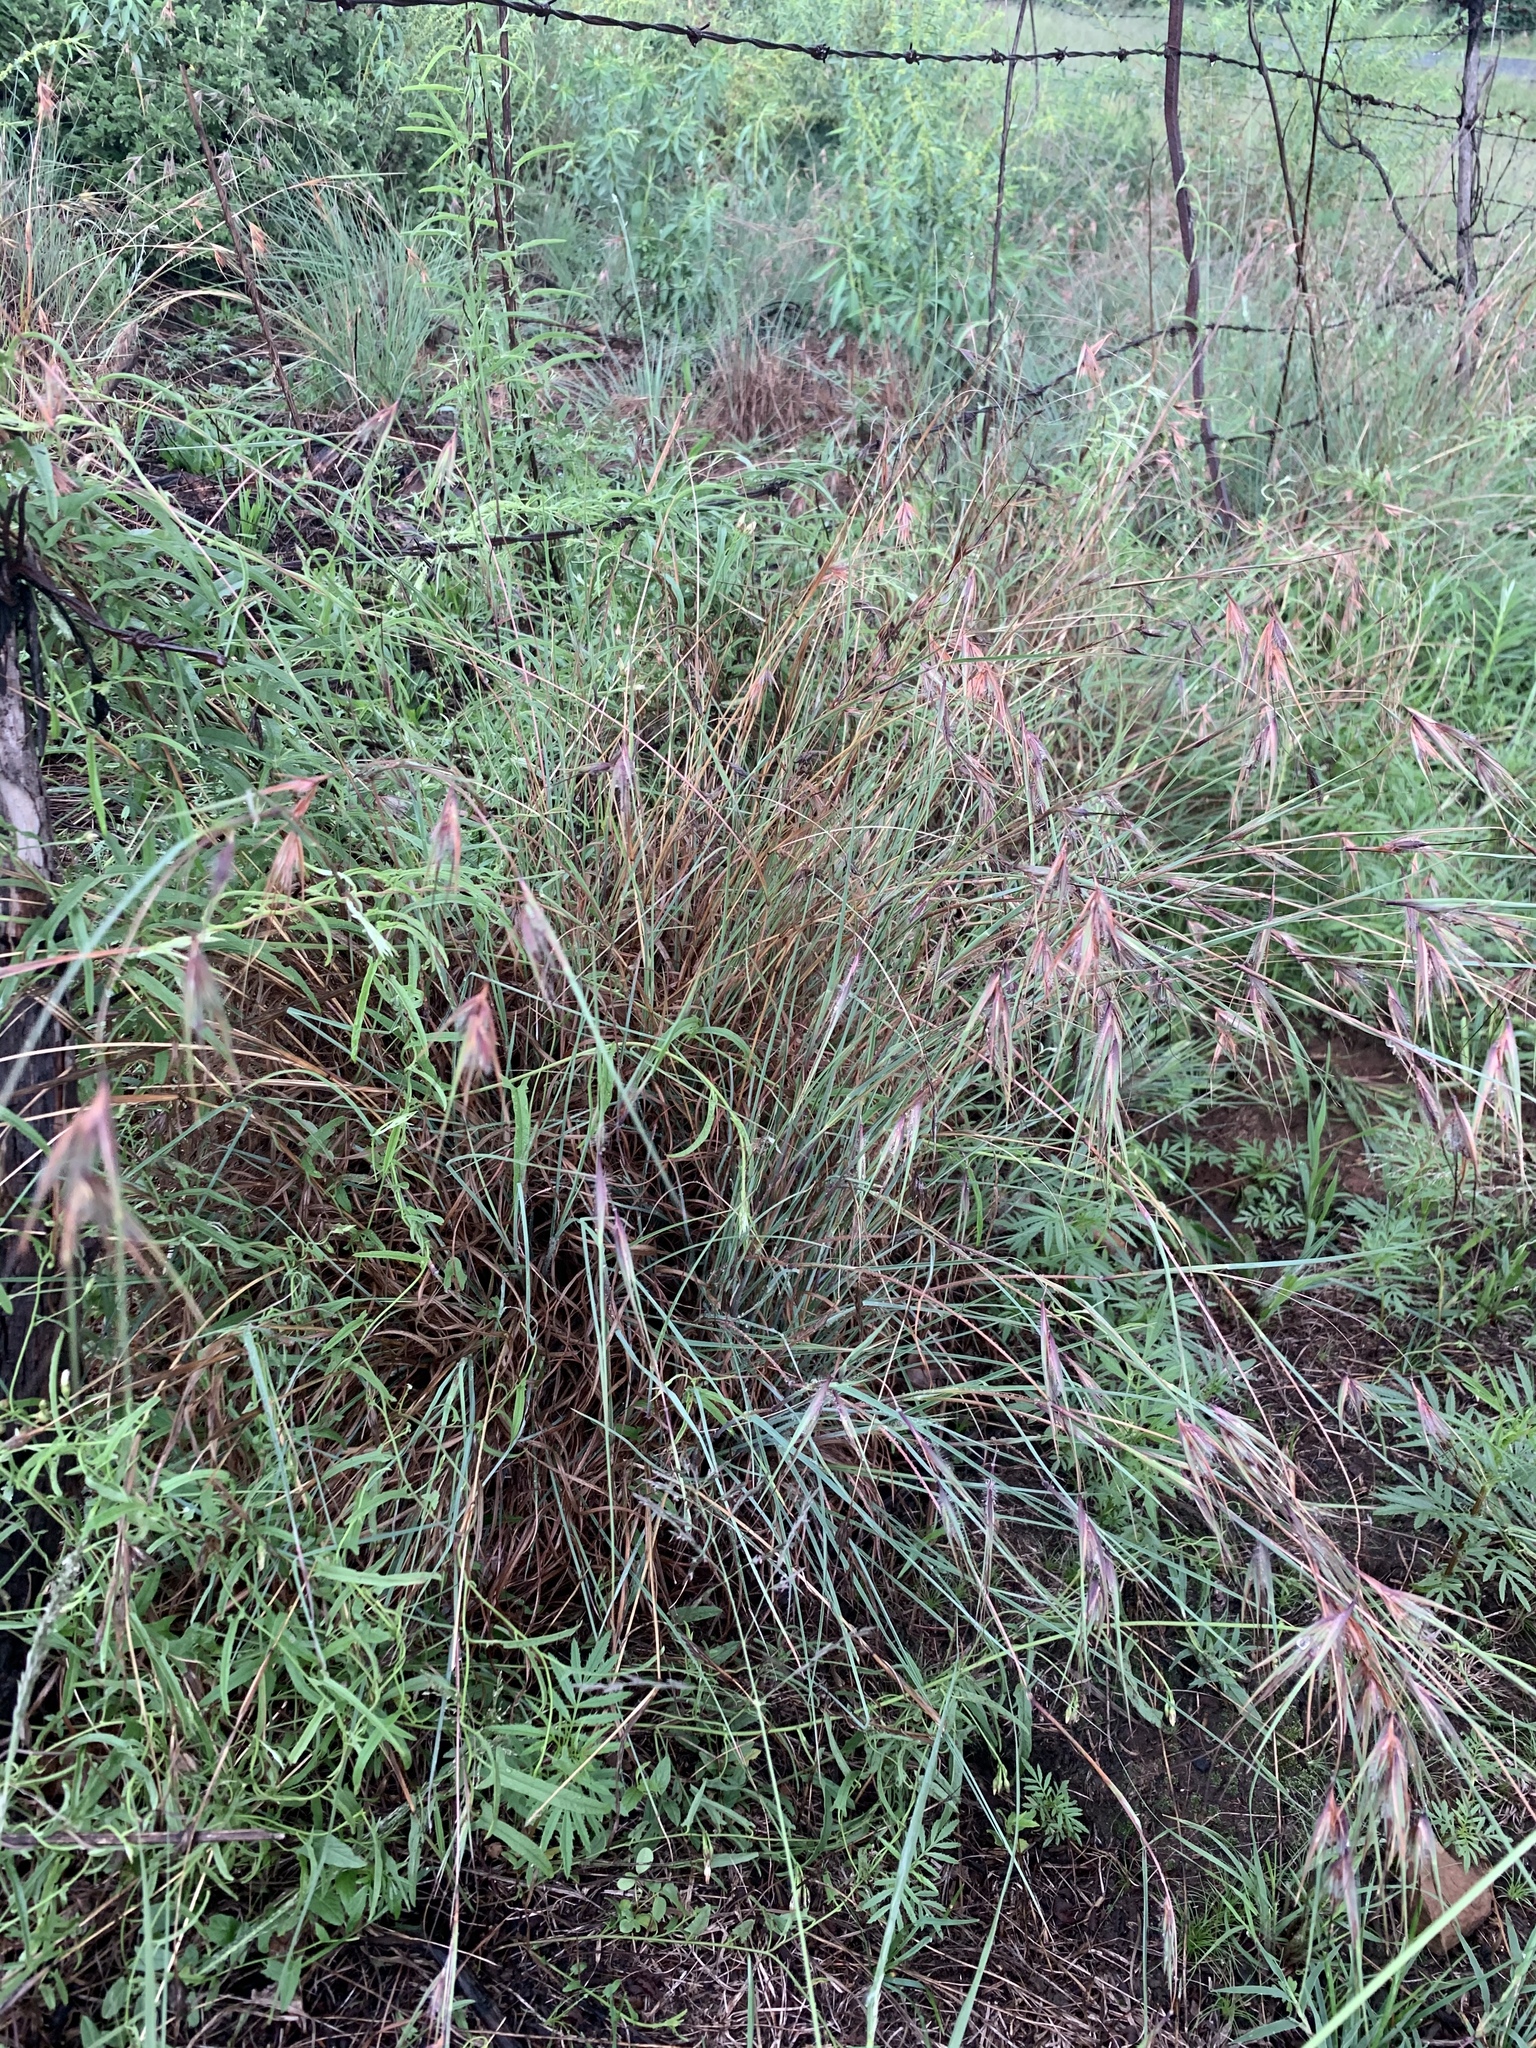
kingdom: Plantae
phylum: Tracheophyta
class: Liliopsida
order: Poales
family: Poaceae
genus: Themeda
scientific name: Themeda triandra
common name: Kangaroo grass
